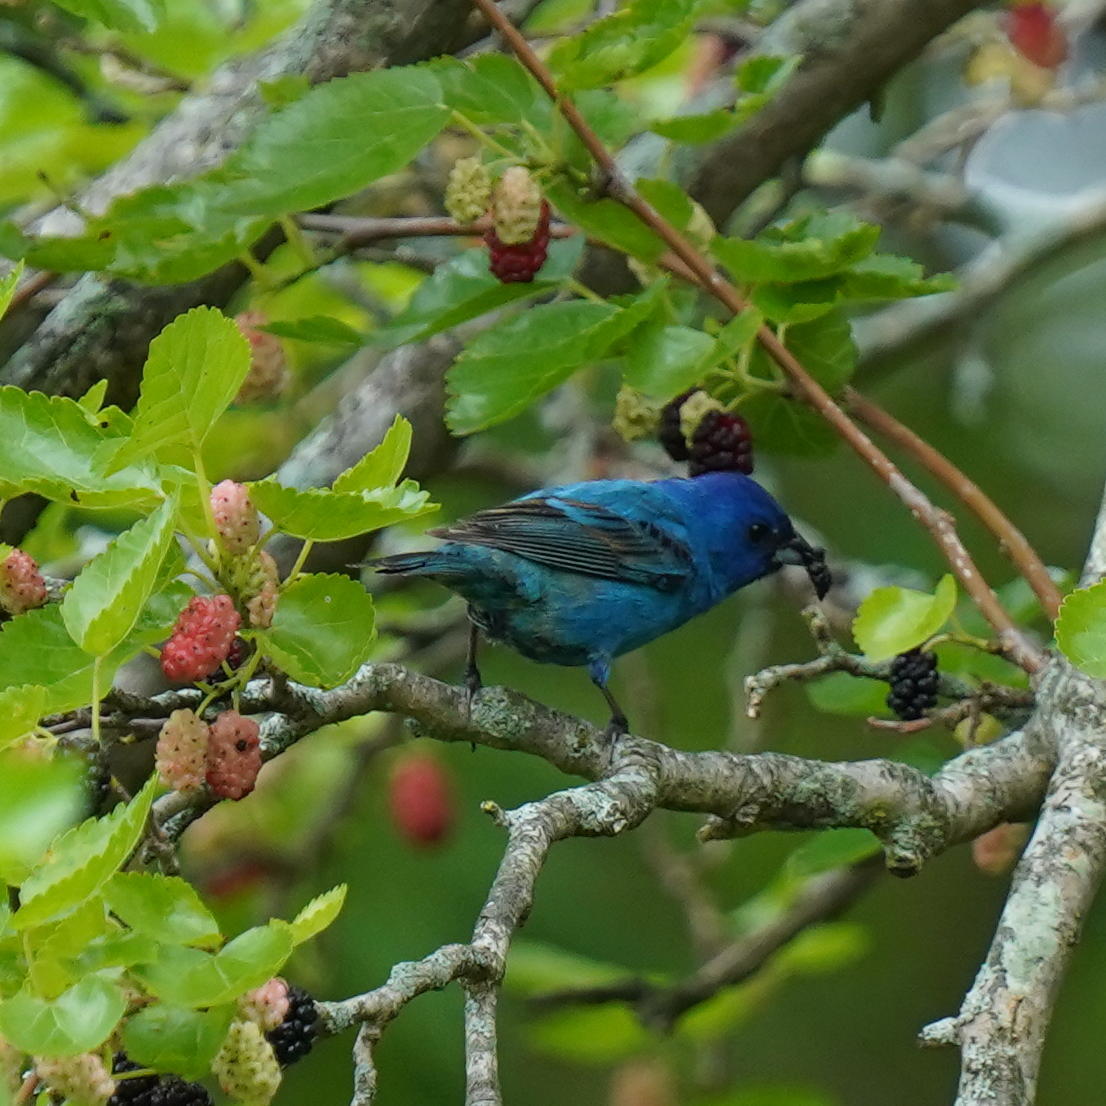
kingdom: Animalia
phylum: Chordata
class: Aves
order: Passeriformes
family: Cardinalidae
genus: Passerina
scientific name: Passerina cyanea
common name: Indigo bunting
